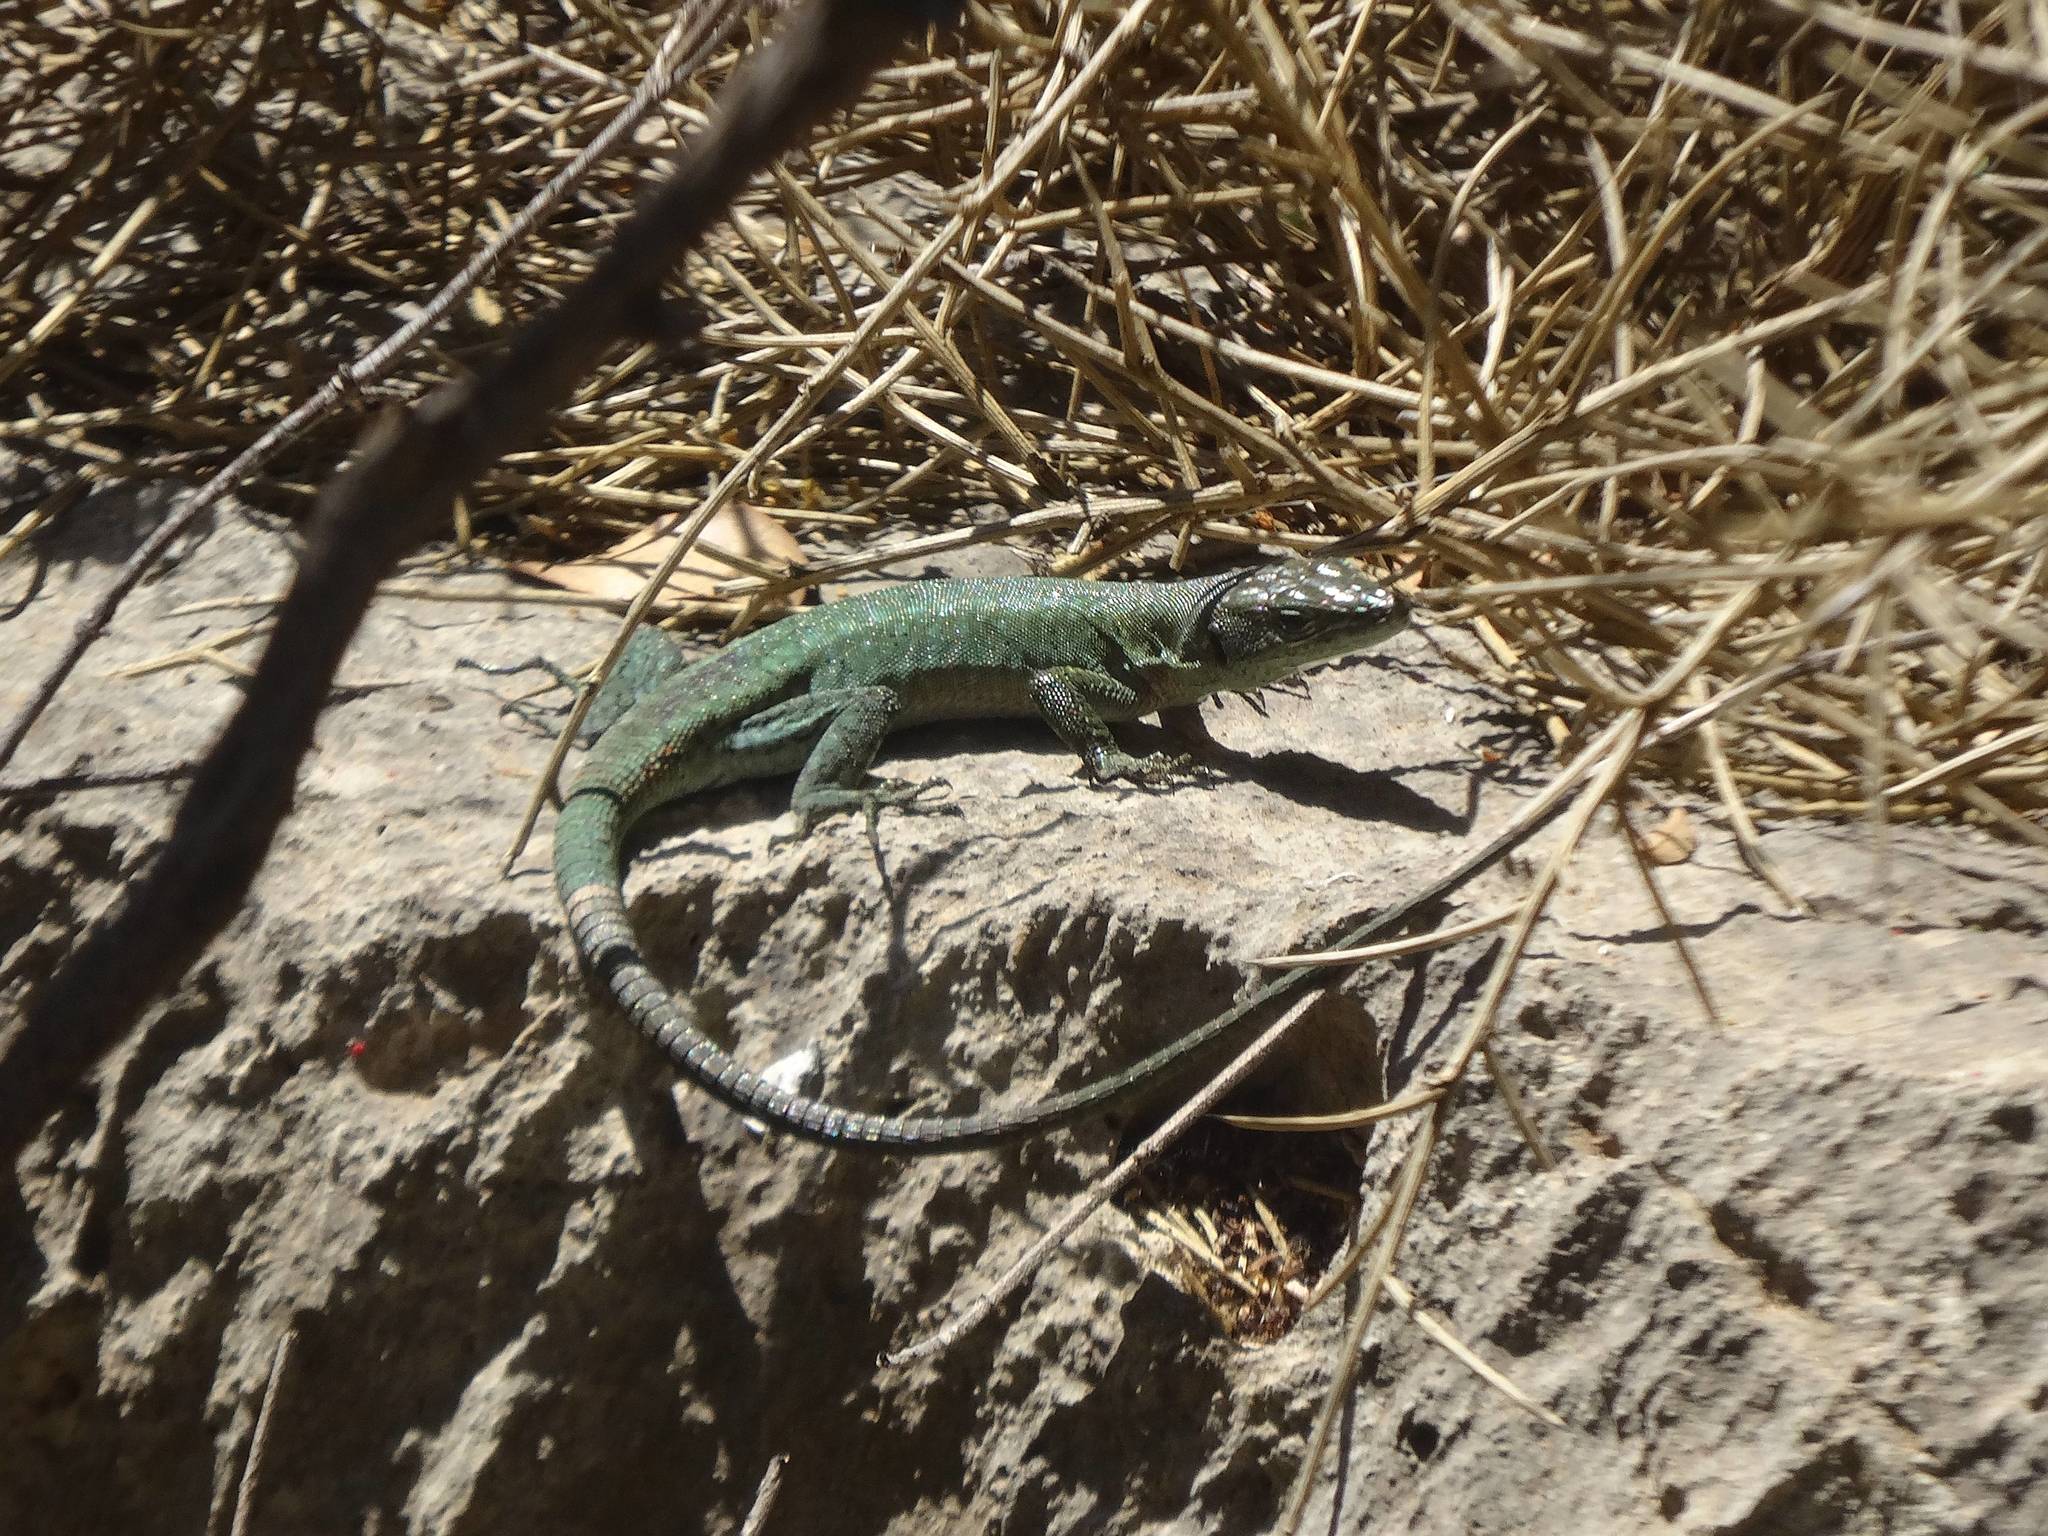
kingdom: Animalia
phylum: Chordata
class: Squamata
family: Lacertidae
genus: Phoenicolacerta
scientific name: Phoenicolacerta laevis
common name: Lebanon lizard
